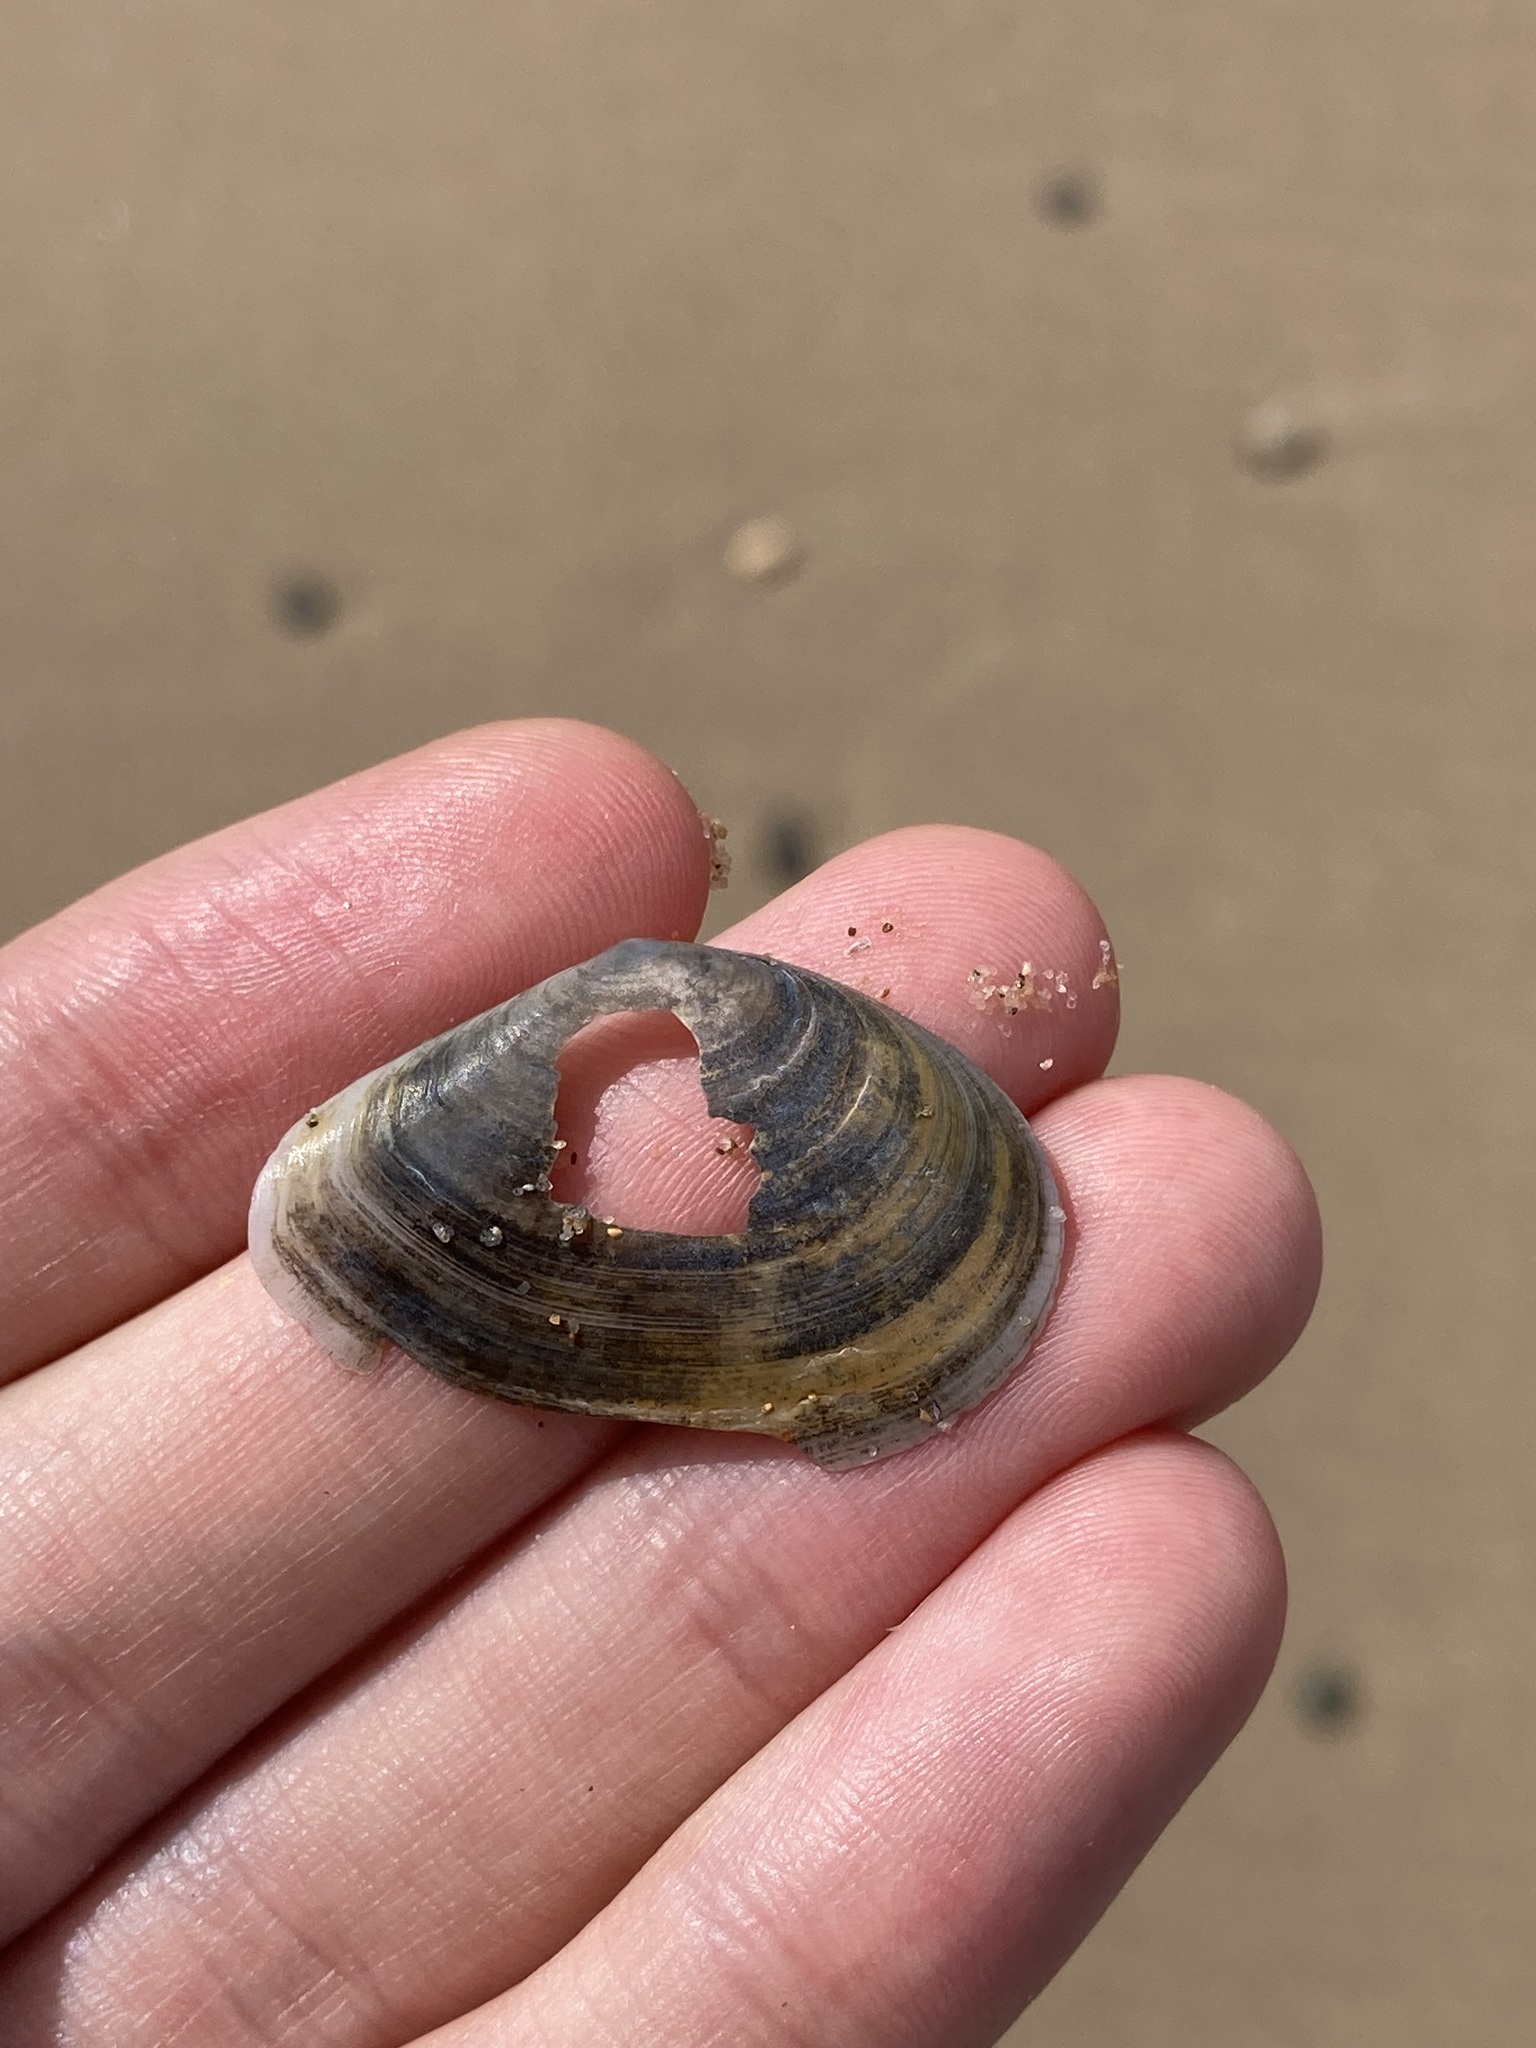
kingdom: Animalia
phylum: Mollusca
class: Bivalvia
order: Cardiida
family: Tellinidae
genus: Macomona
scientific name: Macomona deltoidalis
